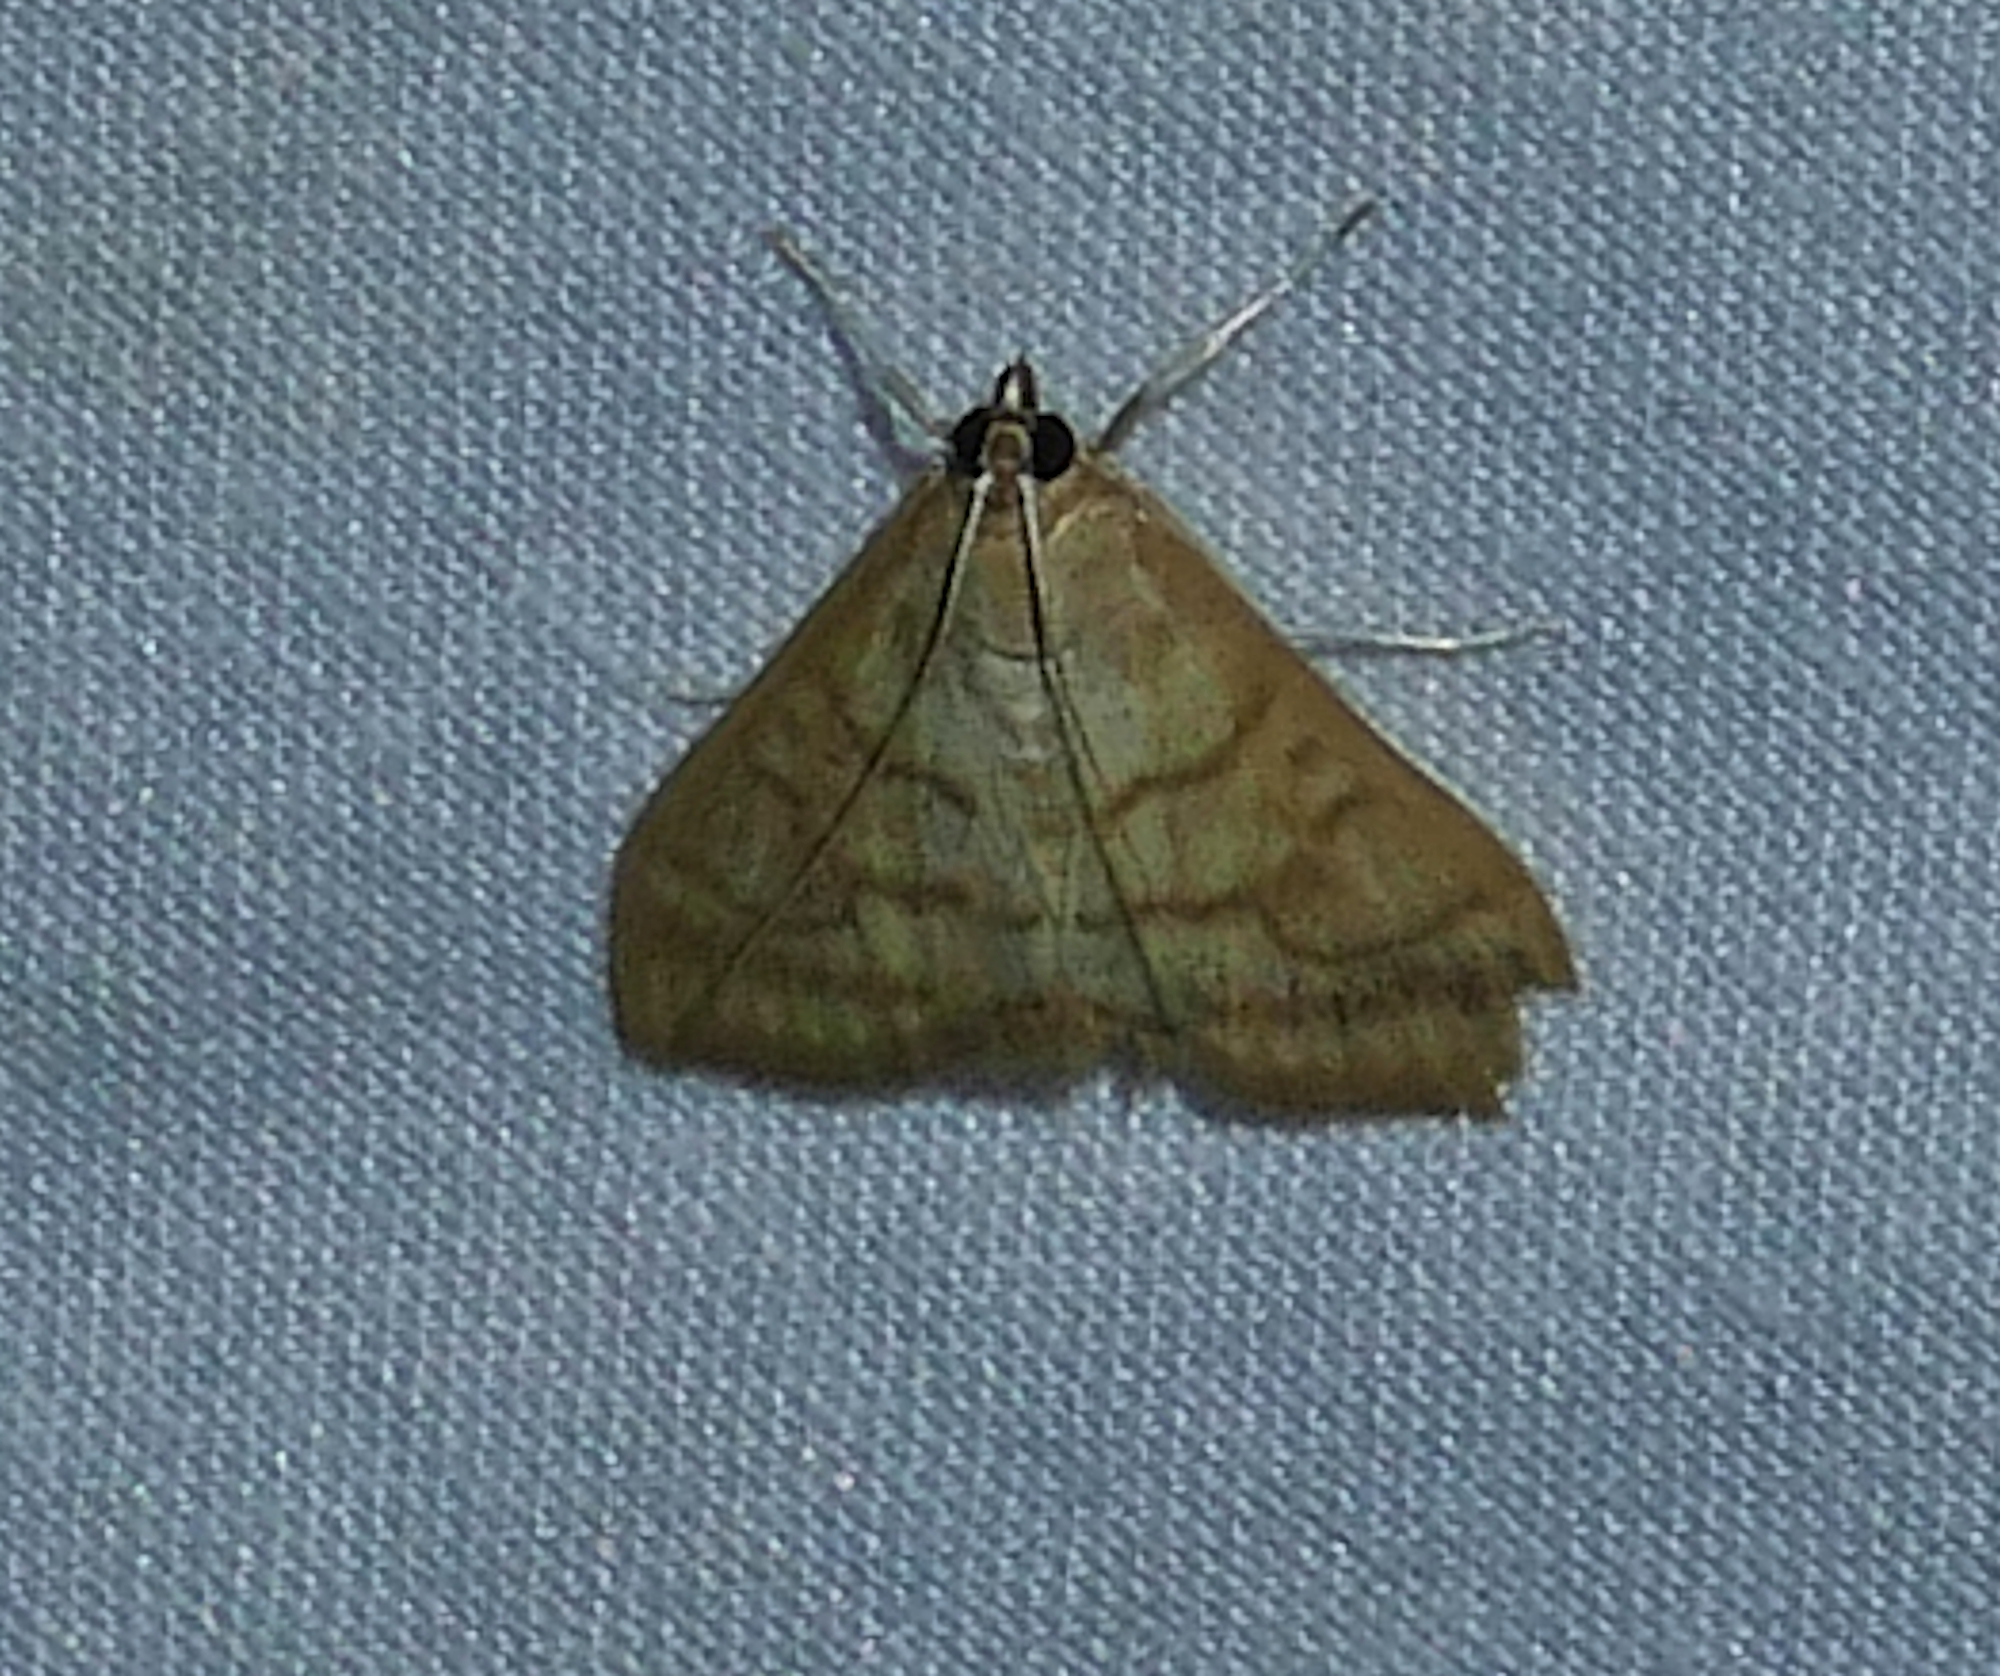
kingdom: Animalia
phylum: Arthropoda
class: Insecta
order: Lepidoptera
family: Crambidae
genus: Hahncappsia
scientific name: Hahncappsia mancalis
